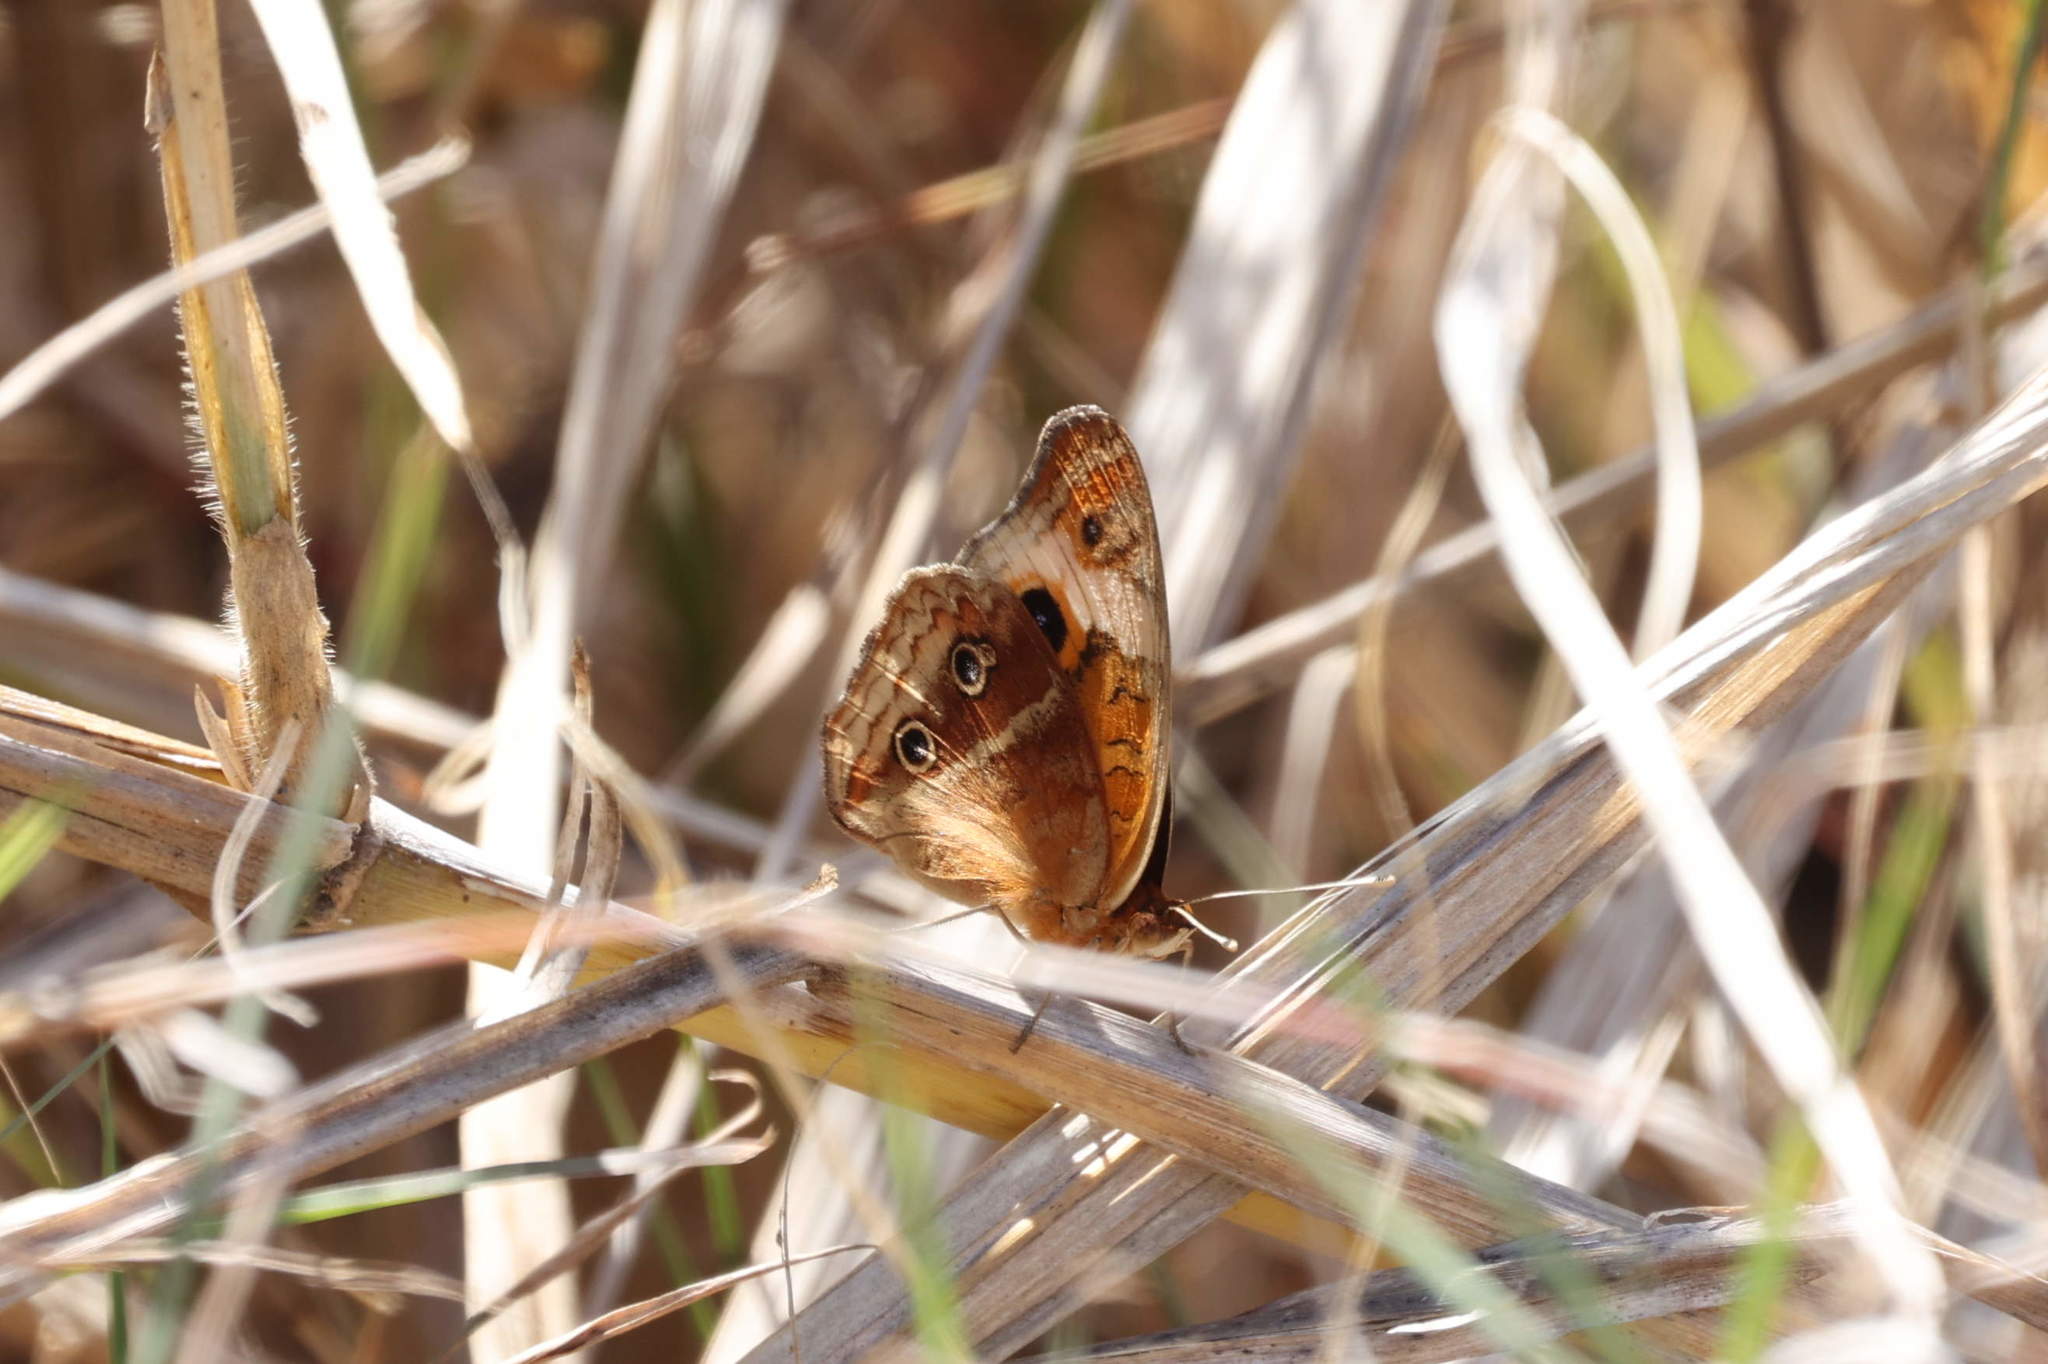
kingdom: Animalia
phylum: Arthropoda
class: Insecta
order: Lepidoptera
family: Nymphalidae
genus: Junonia
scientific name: Junonia lavinia
